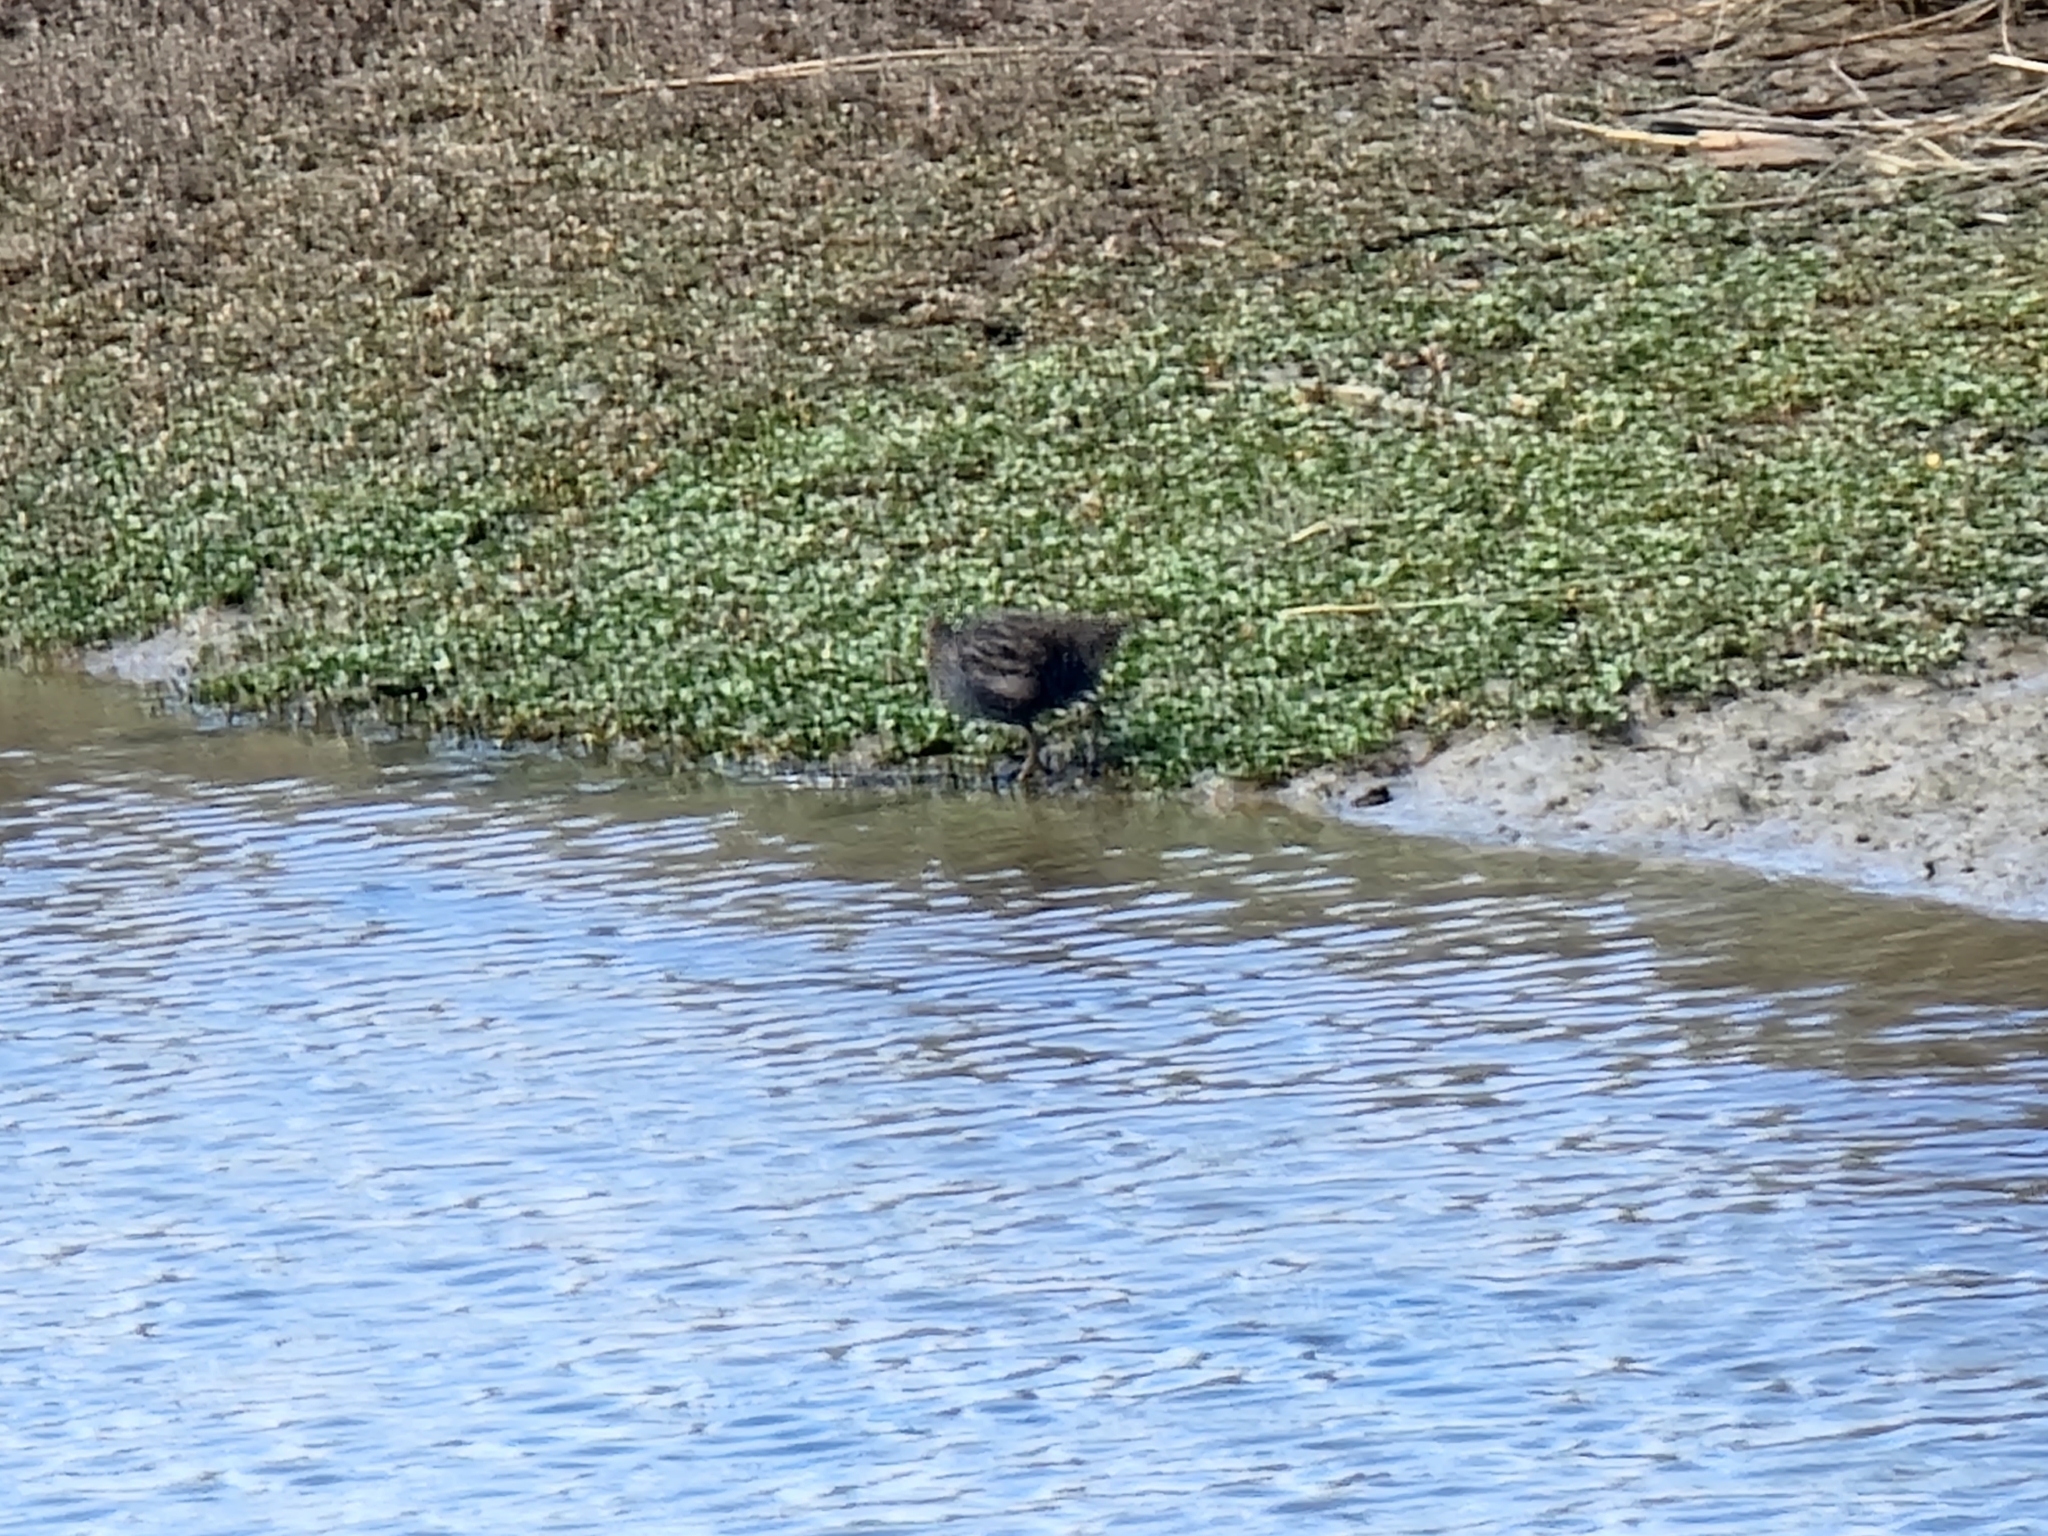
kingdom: Animalia
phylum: Chordata
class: Aves
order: Gruiformes
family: Rallidae
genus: Gallirallus
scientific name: Gallirallus philippensis
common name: Buff-banded rail
